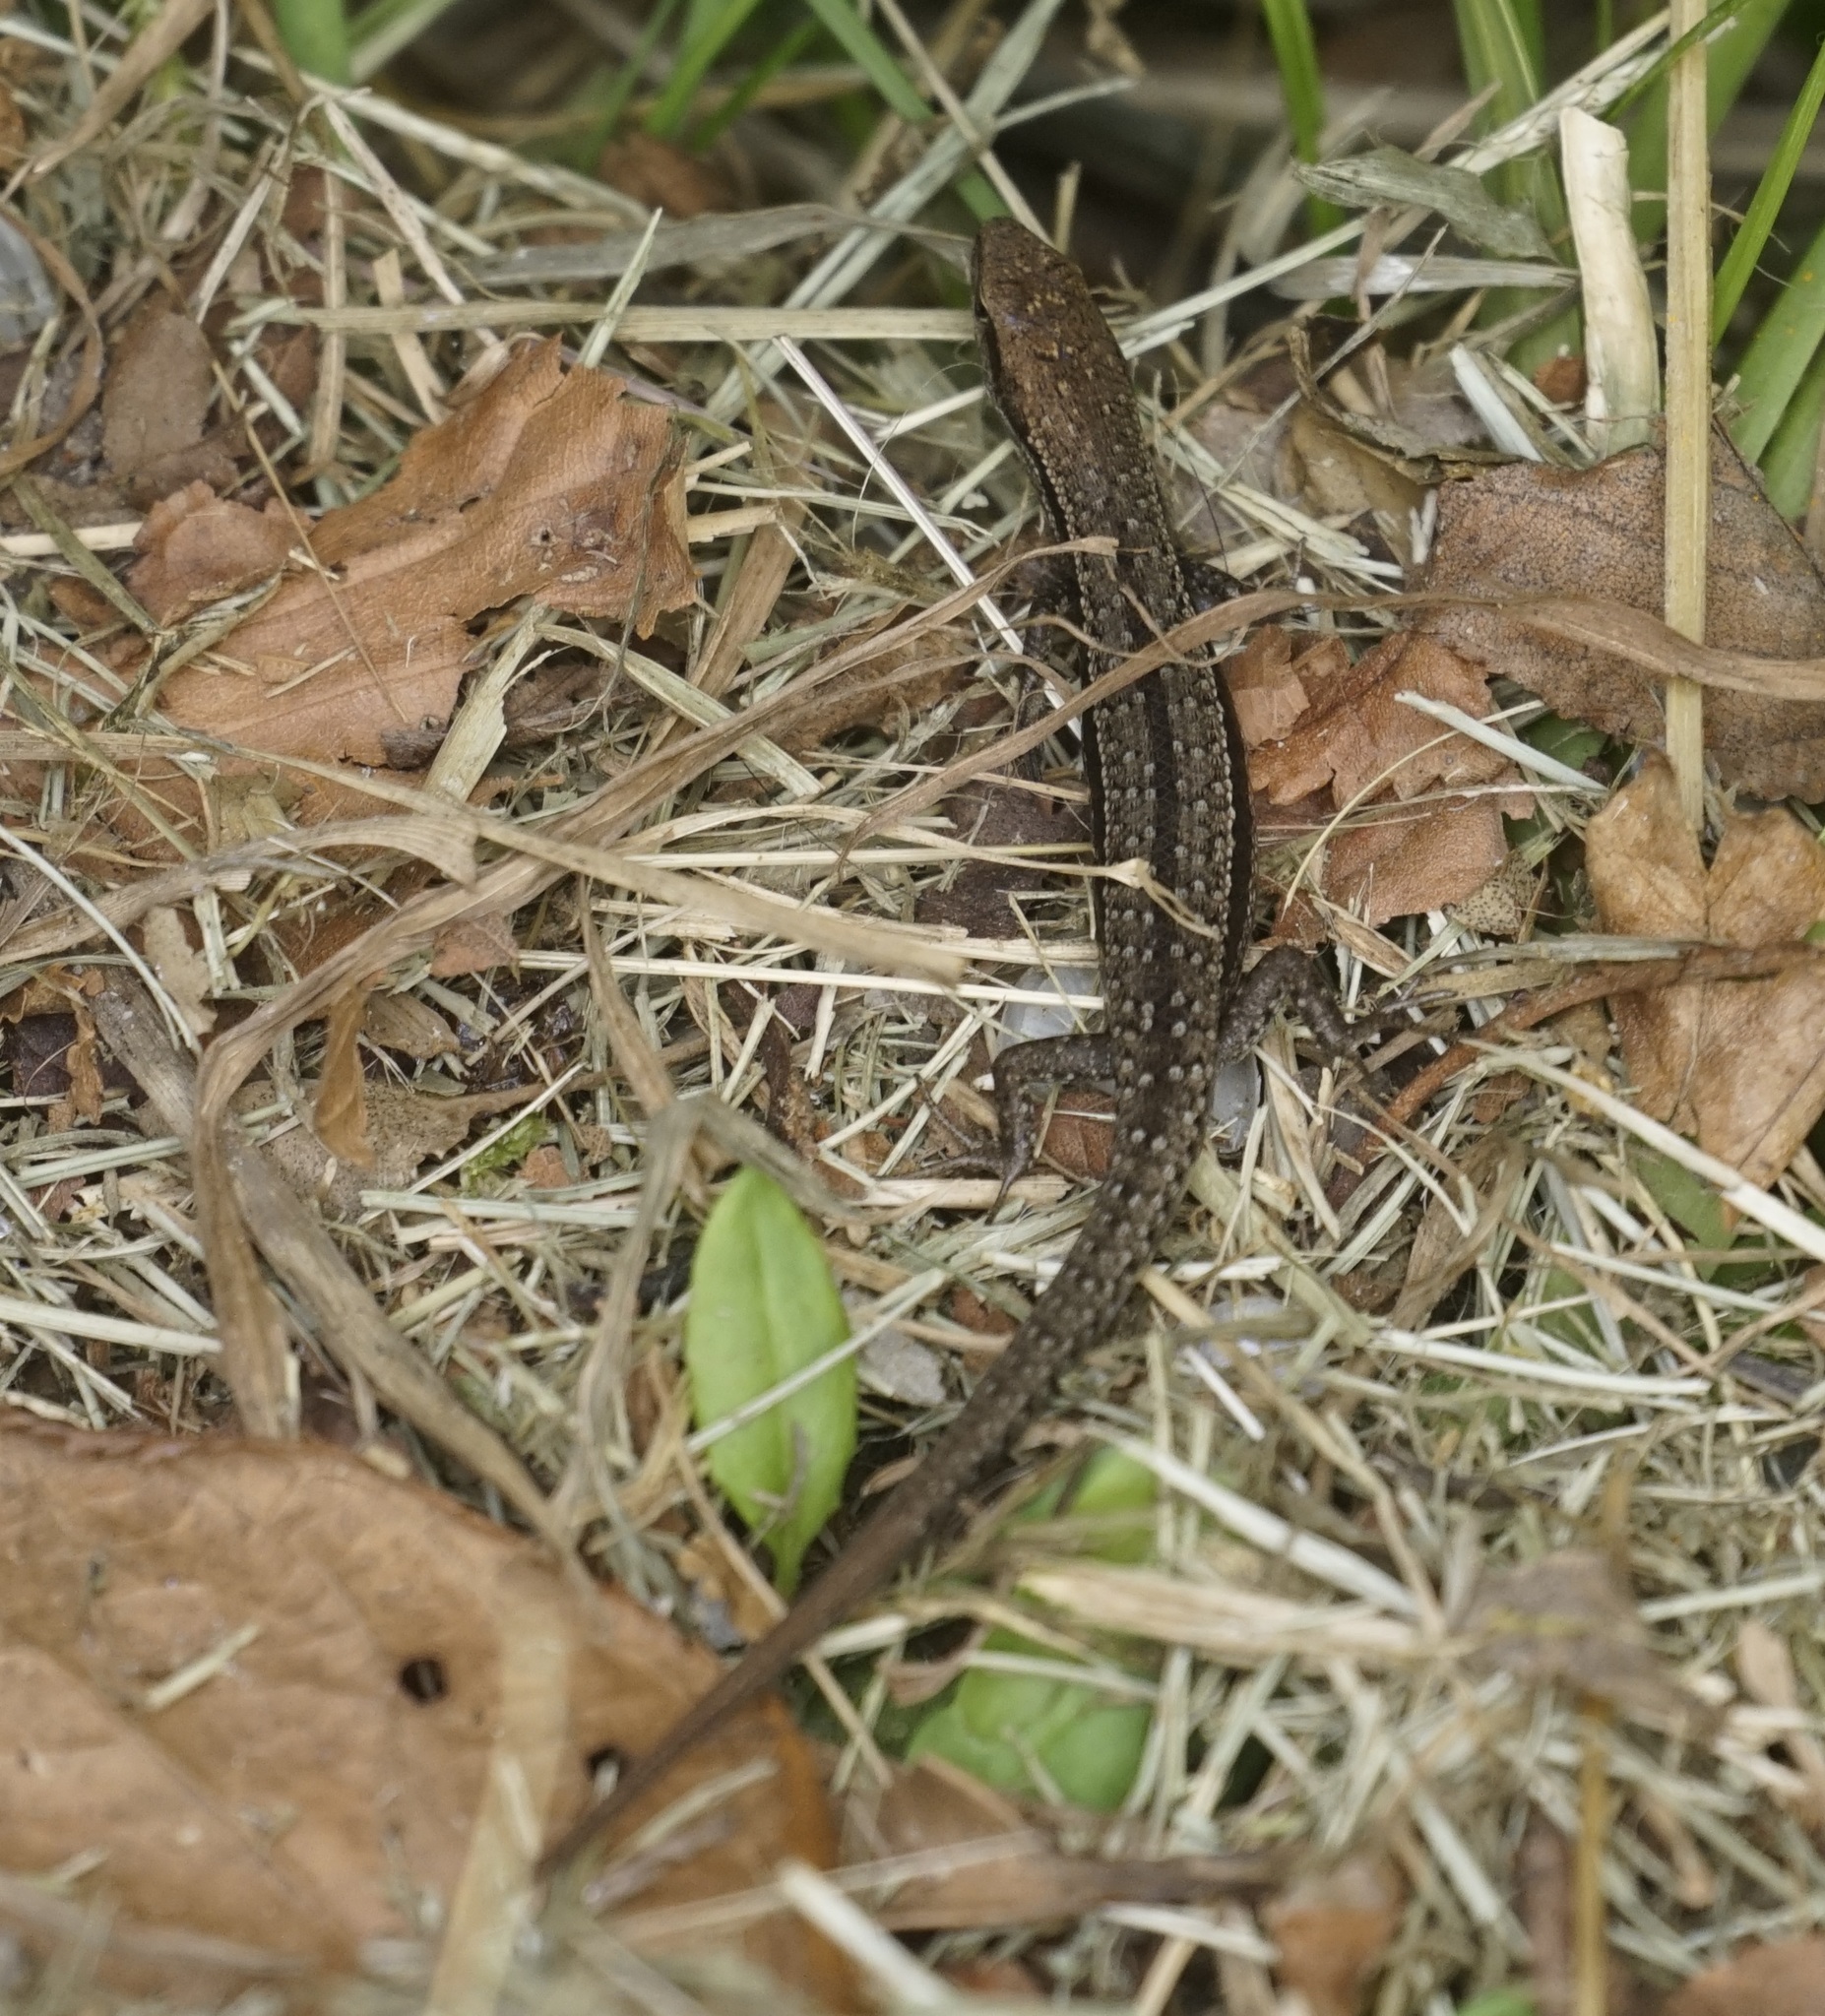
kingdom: Animalia
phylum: Chordata
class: Squamata
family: Scincidae
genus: Lampropholis
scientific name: Lampropholis guichenoti
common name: Garden skink
